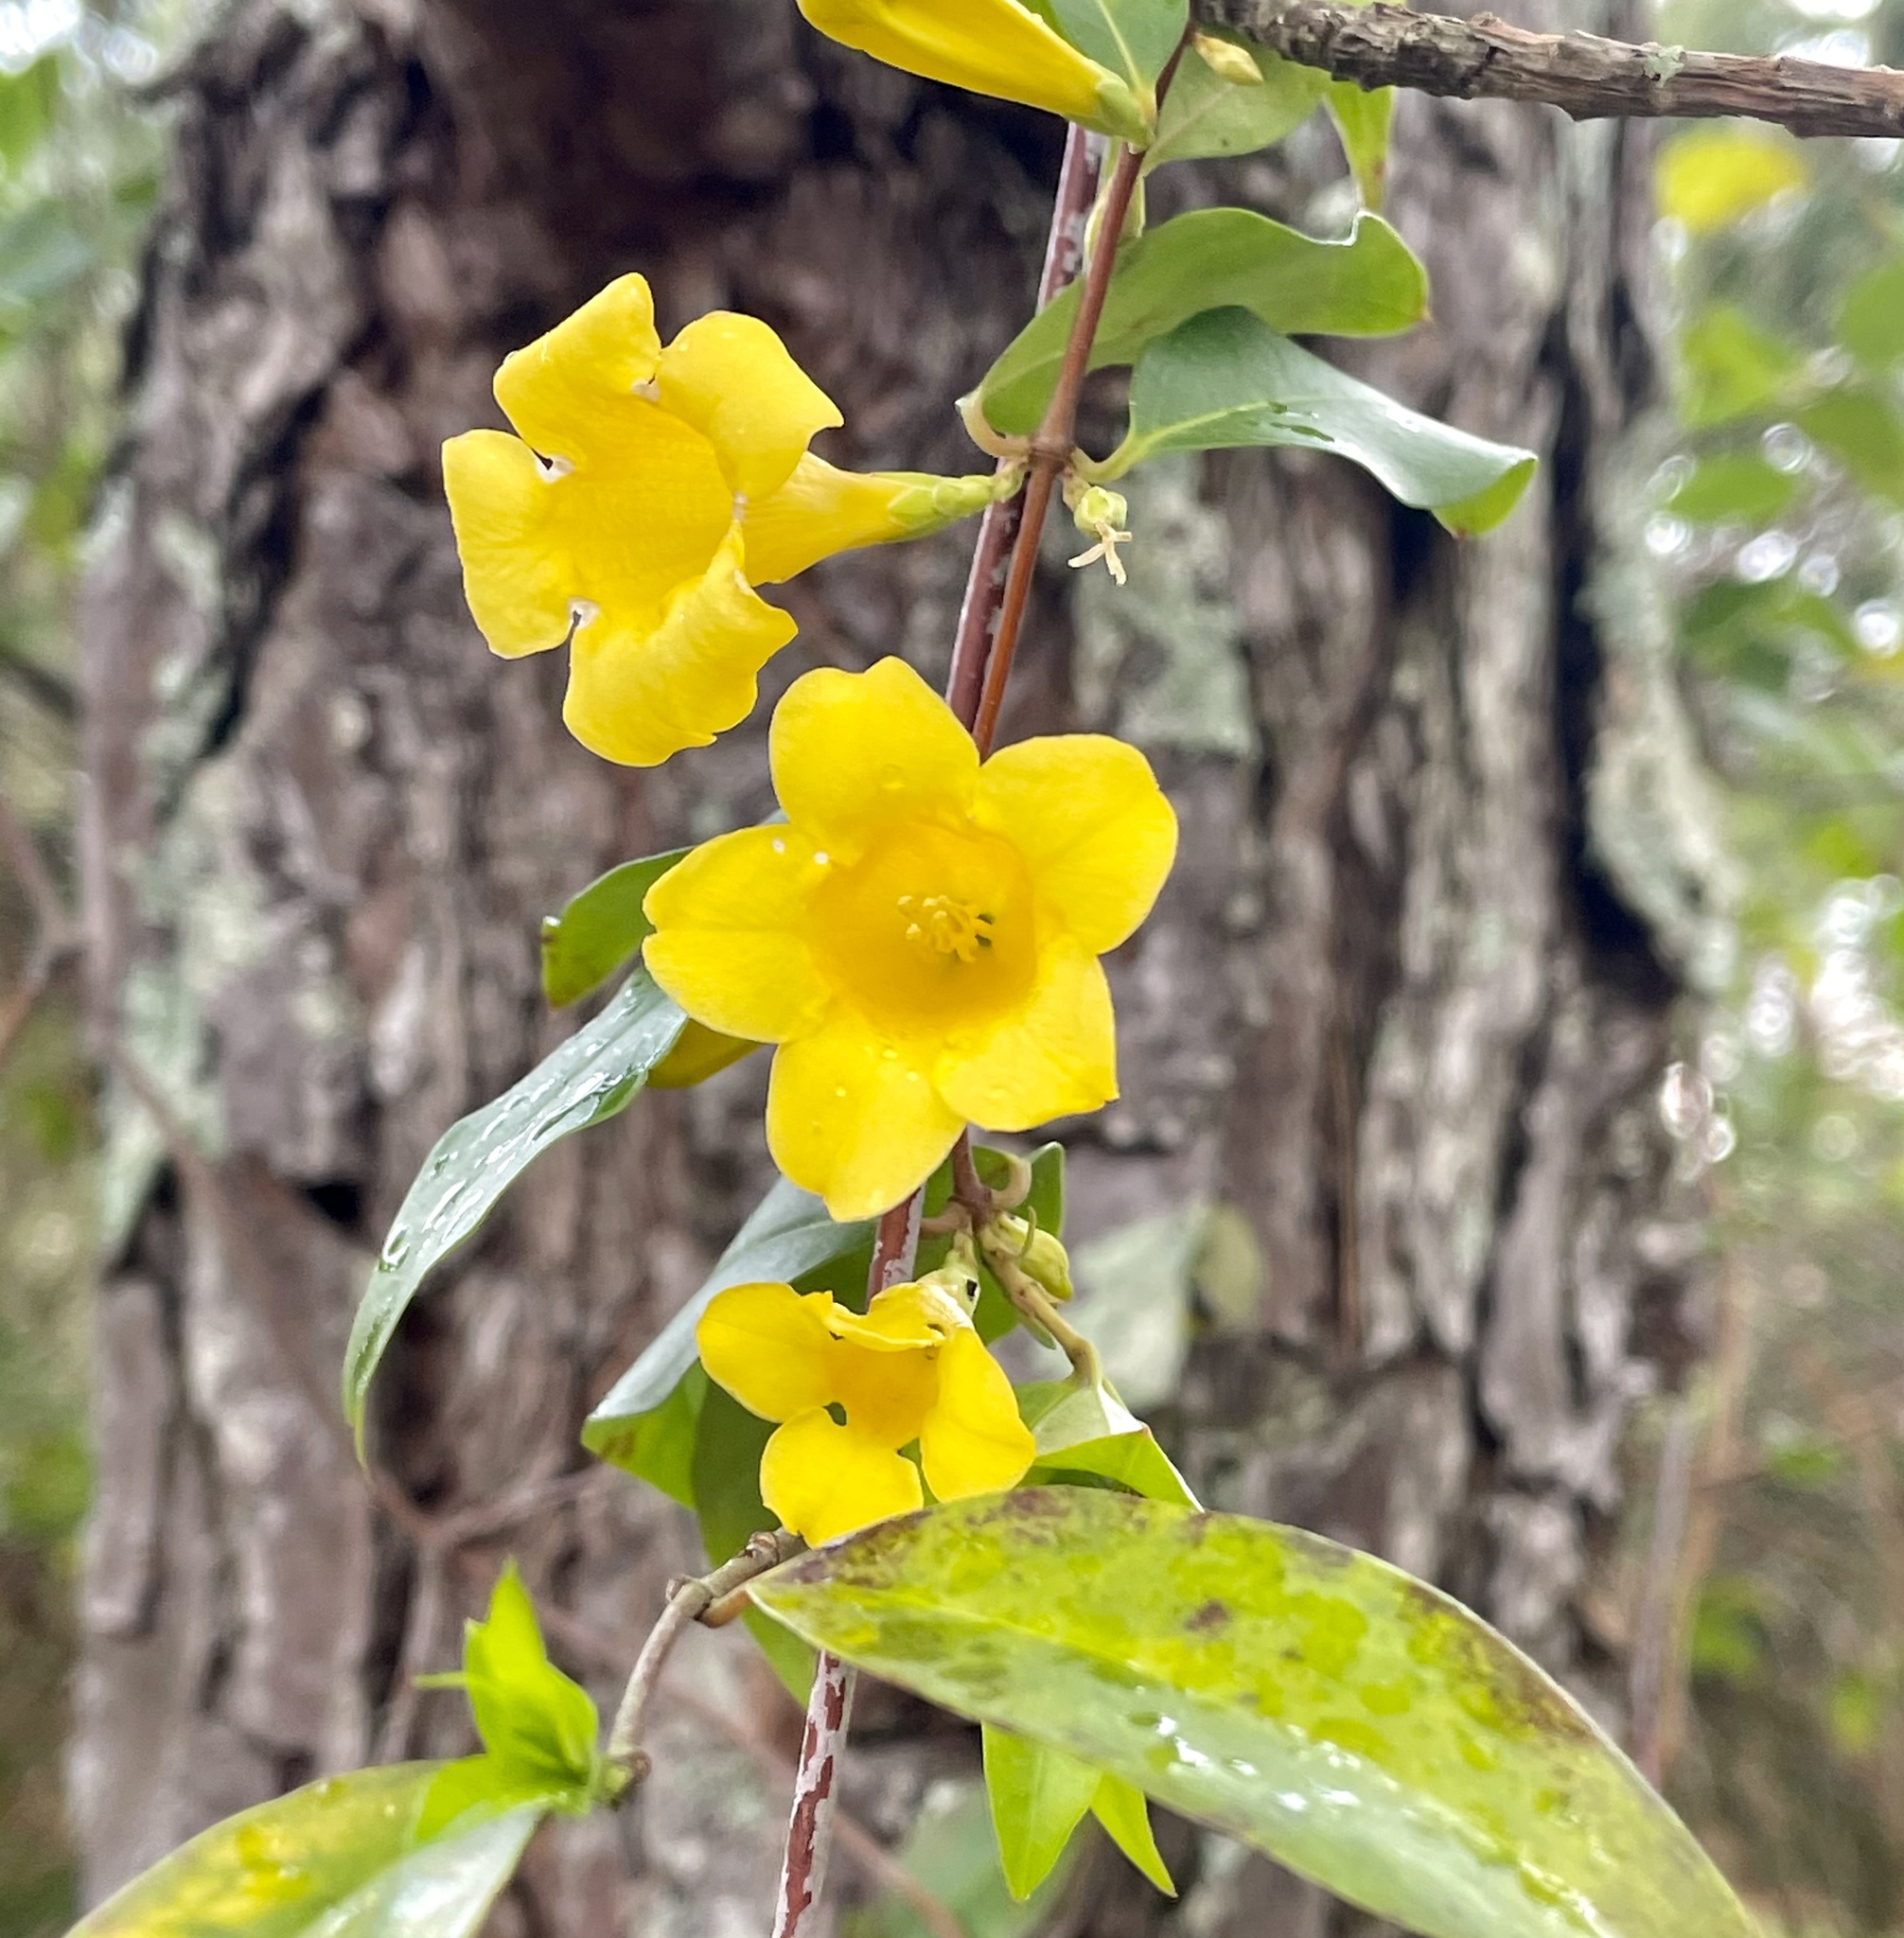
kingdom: Plantae
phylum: Tracheophyta
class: Magnoliopsida
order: Gentianales
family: Gelsemiaceae
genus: Gelsemium
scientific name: Gelsemium sempervirens
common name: Carolina-jasmine
